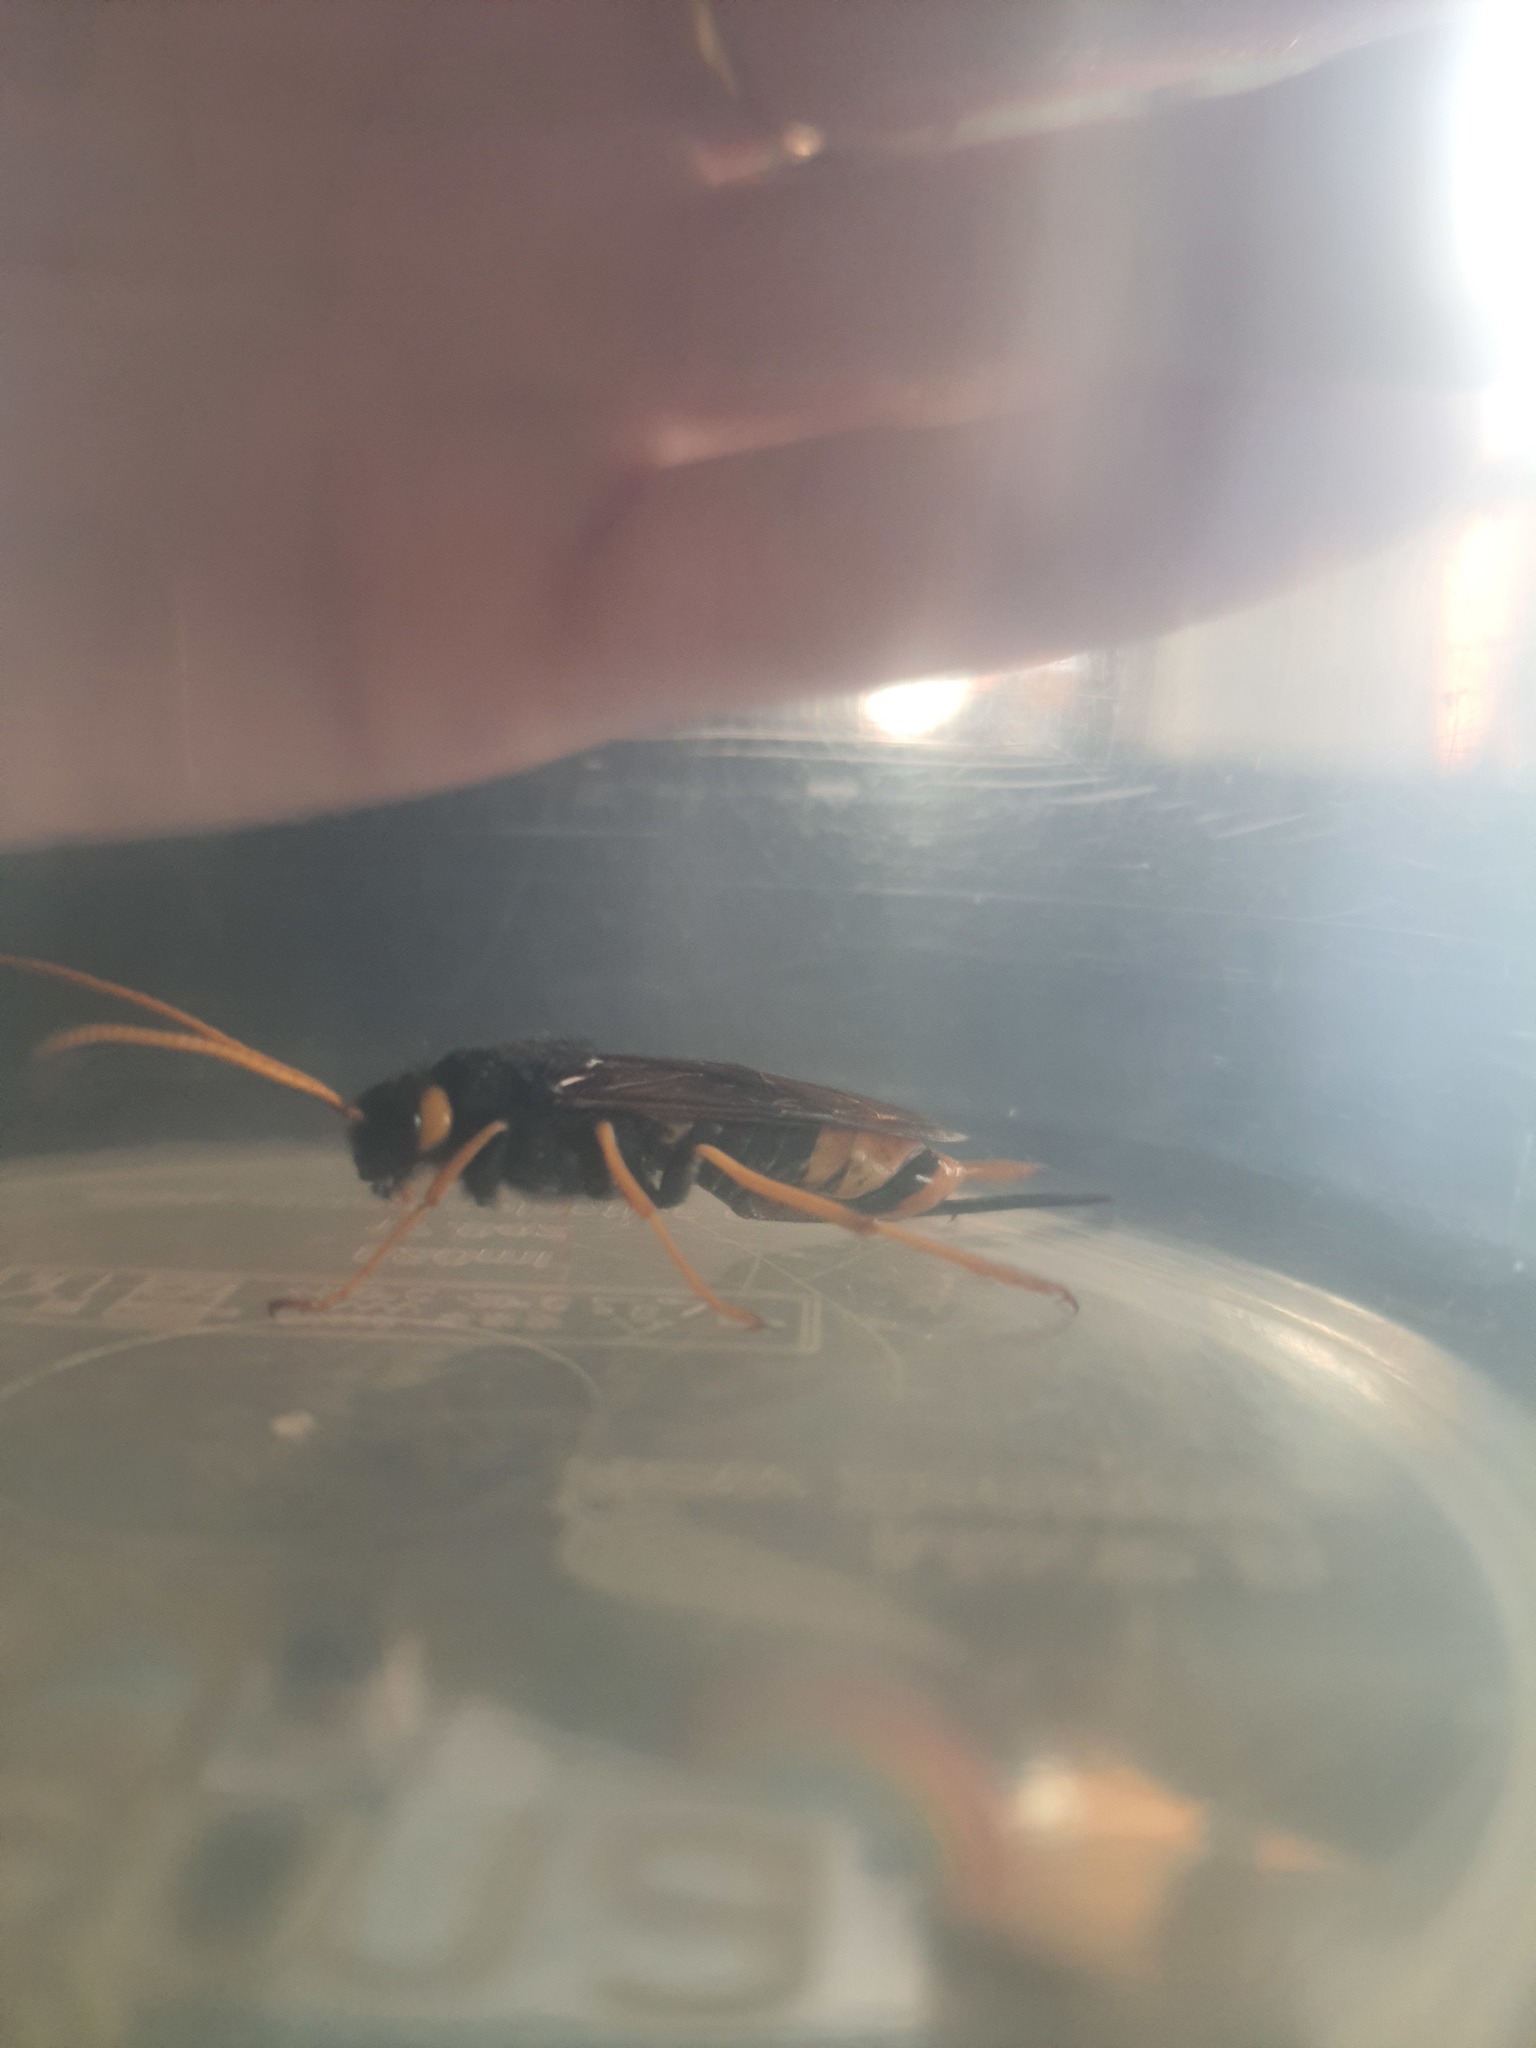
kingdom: Animalia
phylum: Arthropoda
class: Insecta
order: Hymenoptera
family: Siricidae
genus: Urocerus
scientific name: Urocerus gigas
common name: Giant woodwasp
